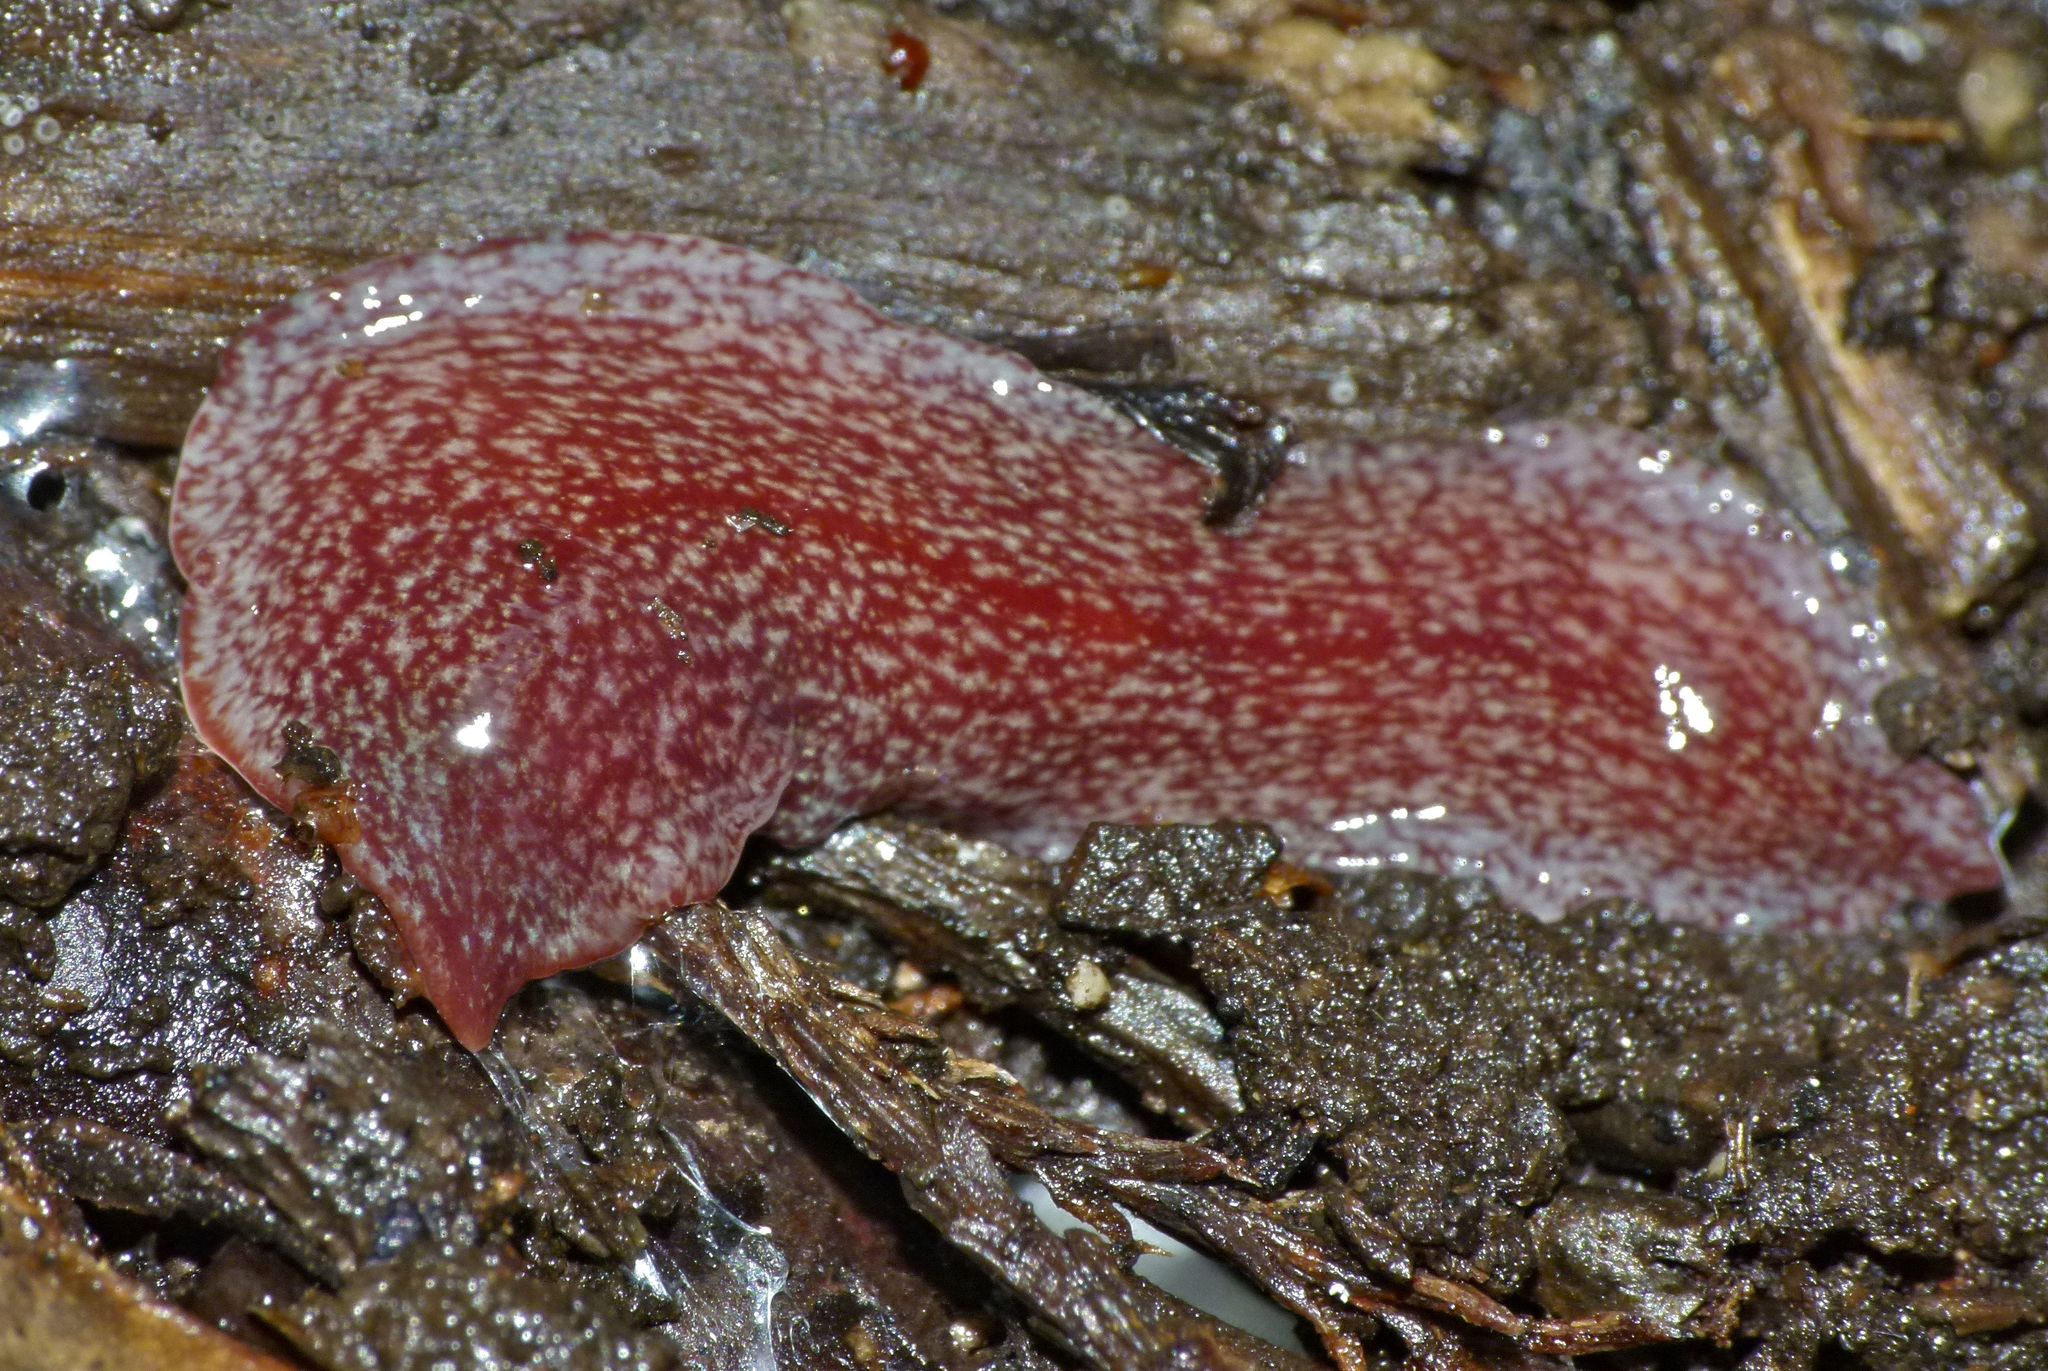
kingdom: Animalia
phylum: Platyhelminthes
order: Tricladida
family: Geoplanidae
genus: Australopacifica
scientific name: Australopacifica spectabilis
